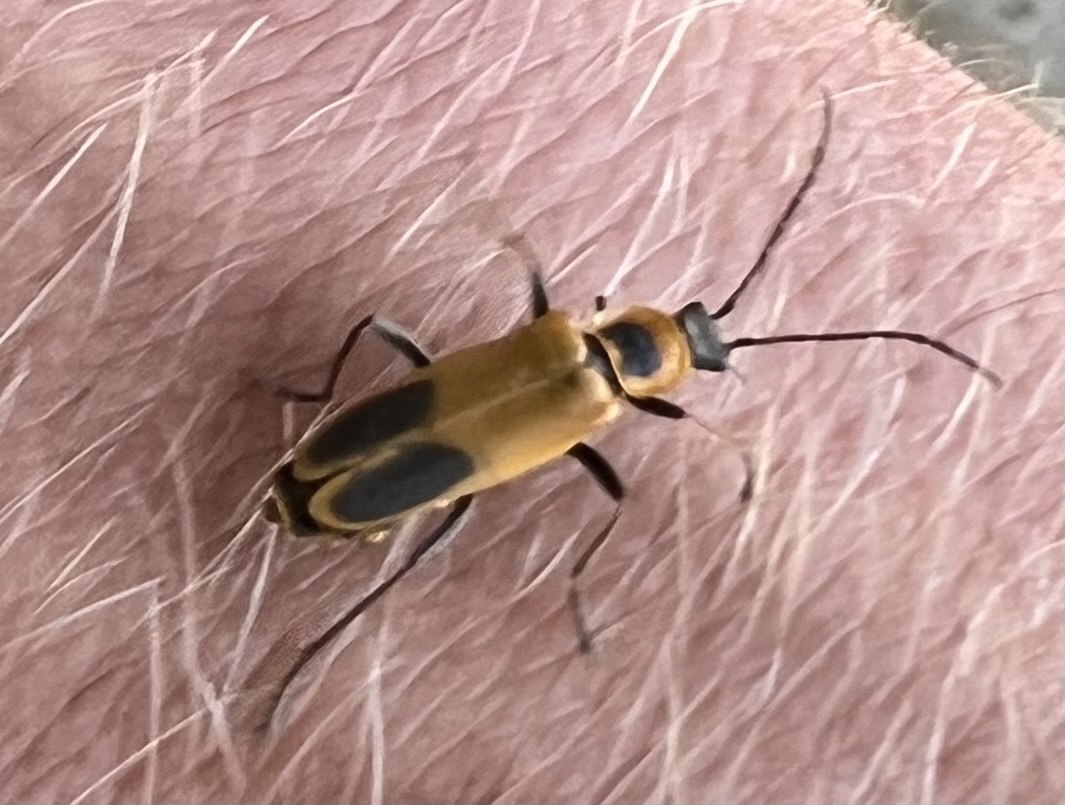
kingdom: Animalia
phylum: Arthropoda
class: Insecta
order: Coleoptera
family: Cantharidae
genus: Chauliognathus
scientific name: Chauliognathus pensylvanicus
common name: Goldenrod soldier beetle
